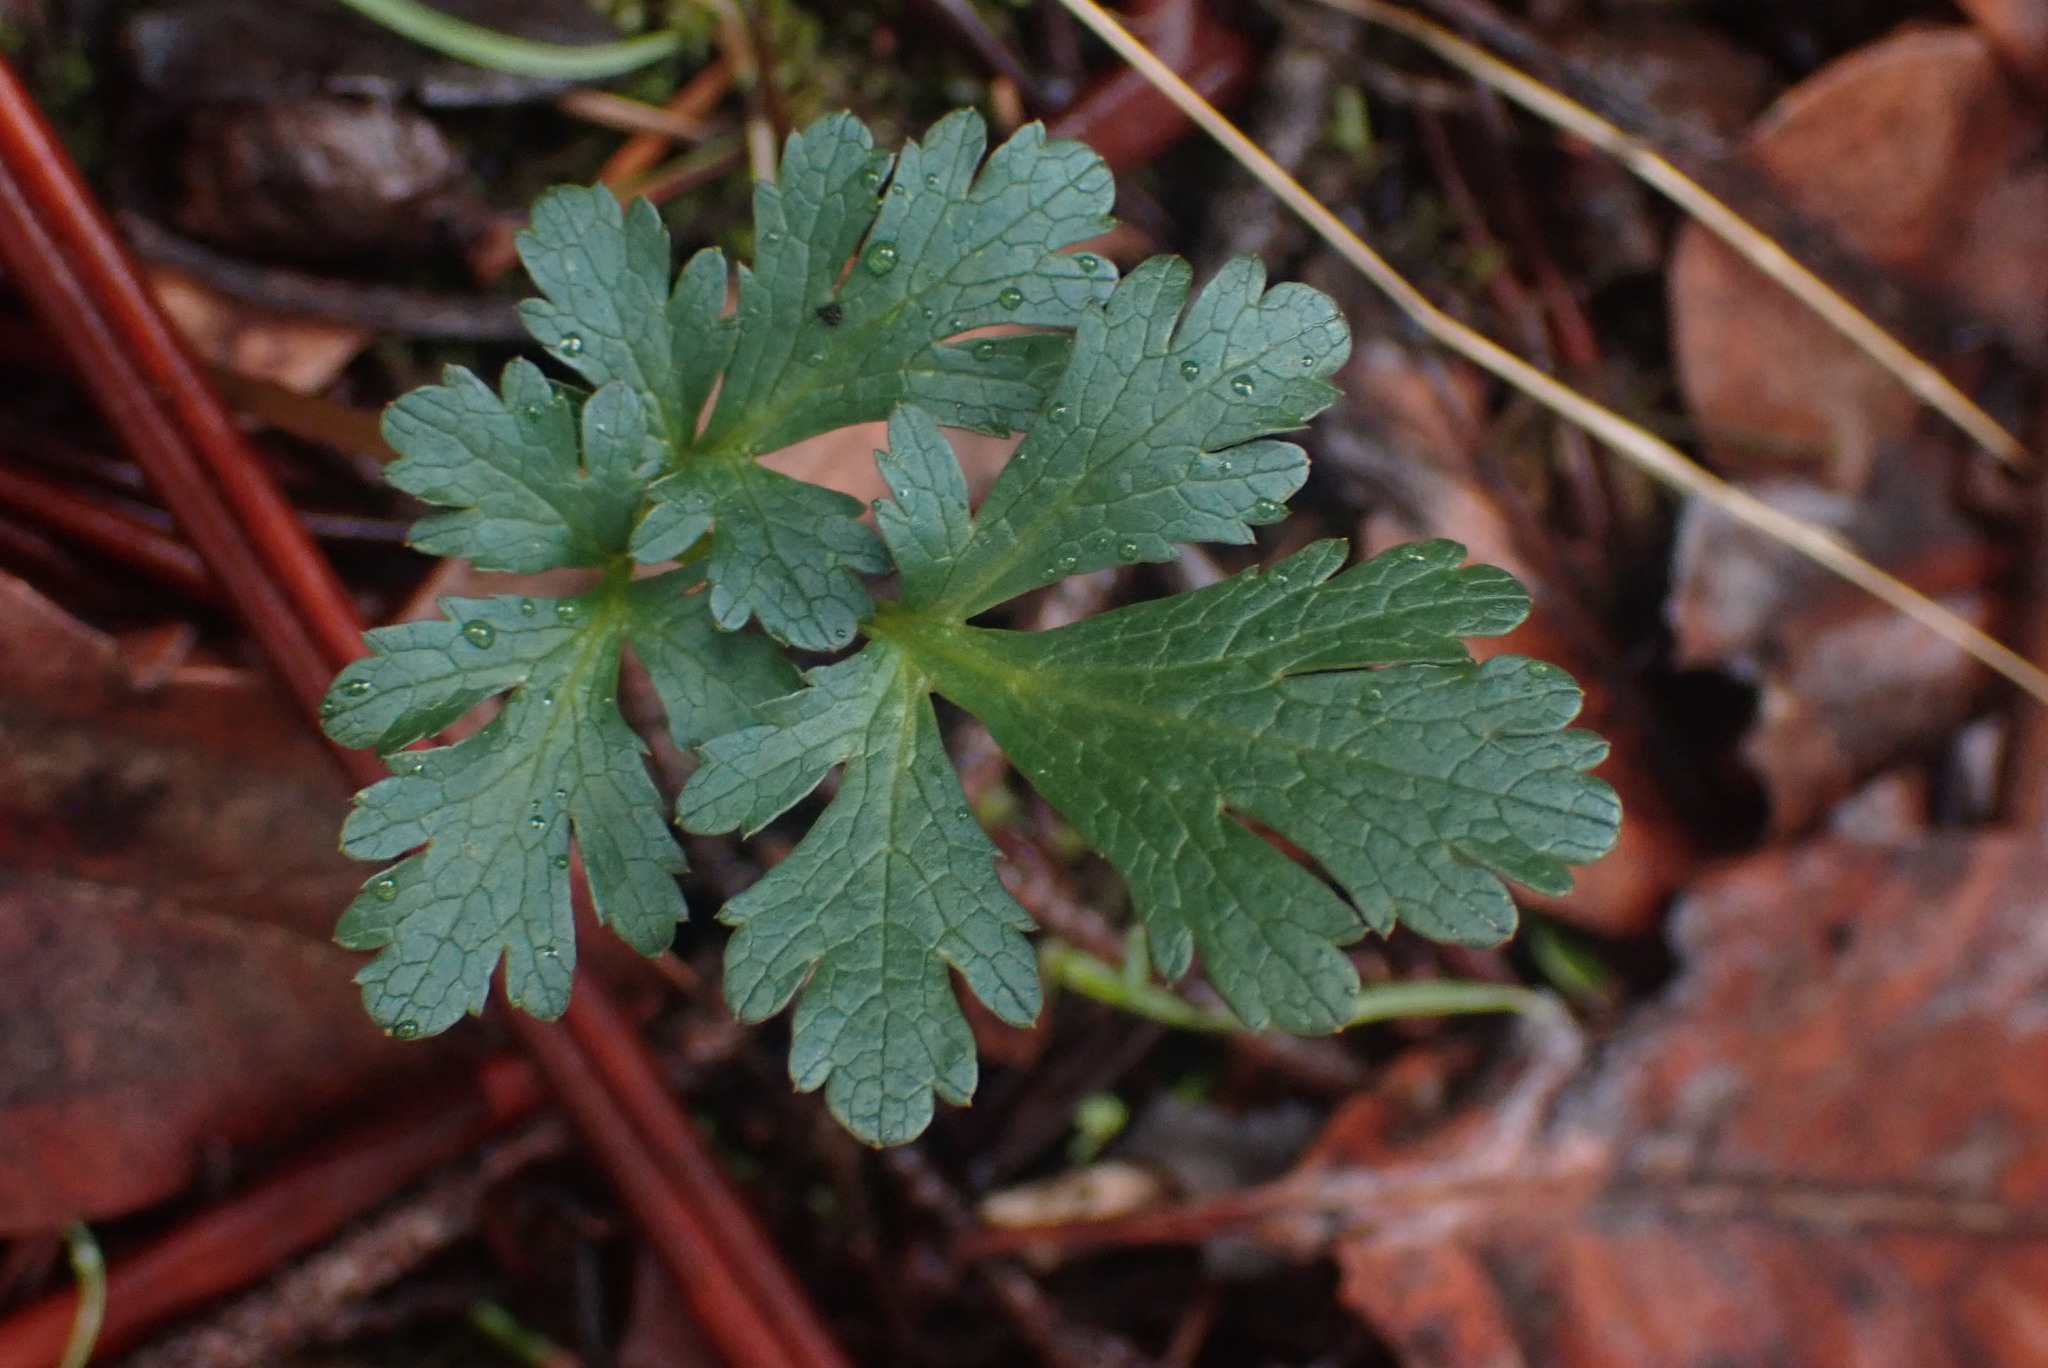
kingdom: Plantae
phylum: Tracheophyta
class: Magnoliopsida
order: Apiales
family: Apiaceae
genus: Sanicula
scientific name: Sanicula graveolens
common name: Sierra sanicle
